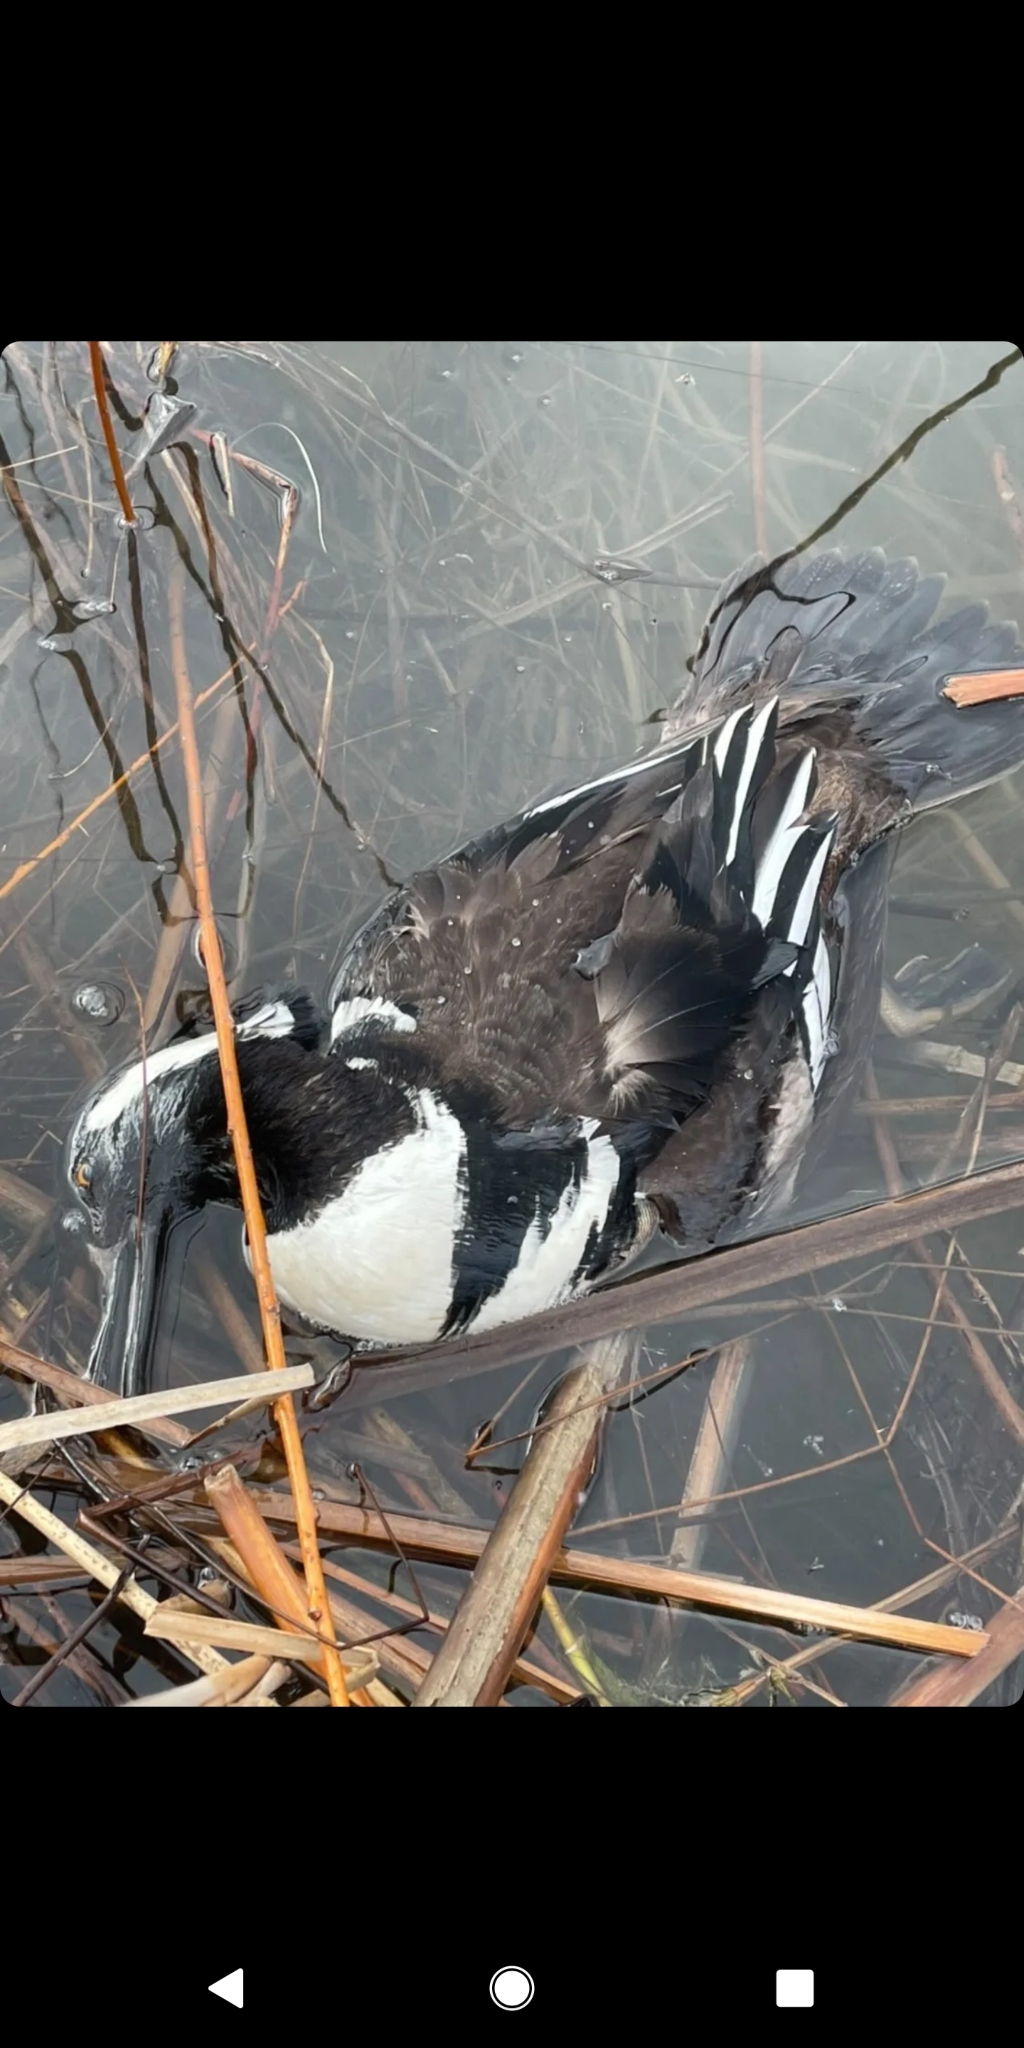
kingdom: Animalia
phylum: Chordata
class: Aves
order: Anseriformes
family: Anatidae
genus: Lophodytes
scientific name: Lophodytes cucullatus
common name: Hooded merganser
